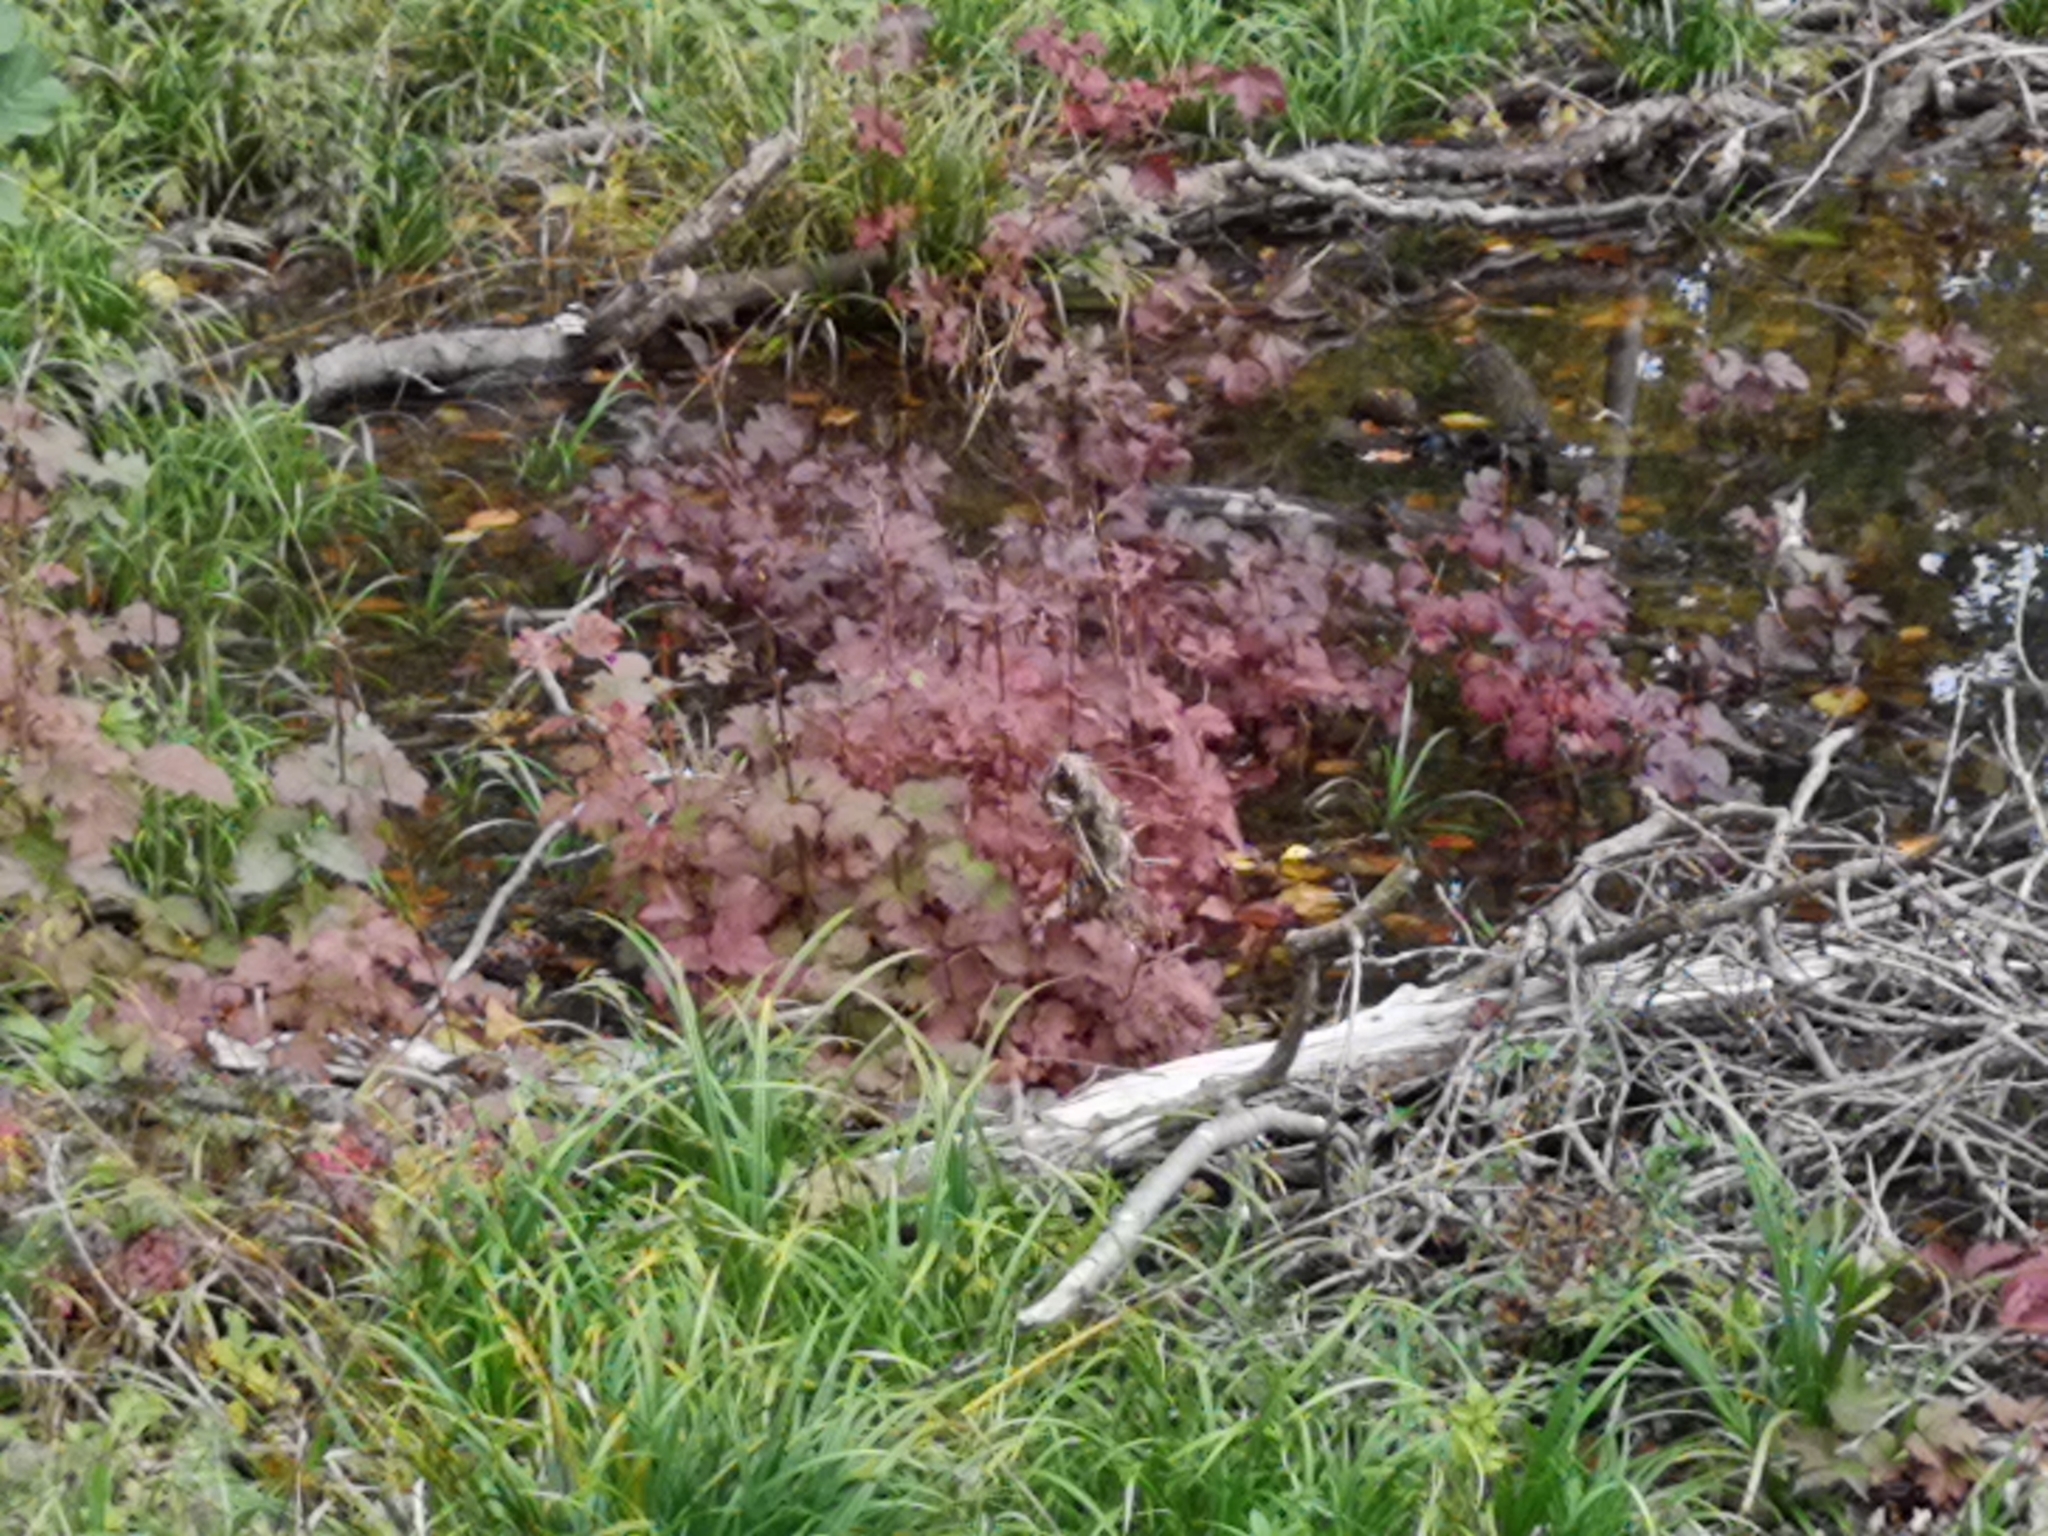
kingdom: Plantae
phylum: Tracheophyta
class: Magnoliopsida
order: Dipsacales
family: Viburnaceae
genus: Viburnum
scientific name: Viburnum opulus
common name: Guelder-rose
